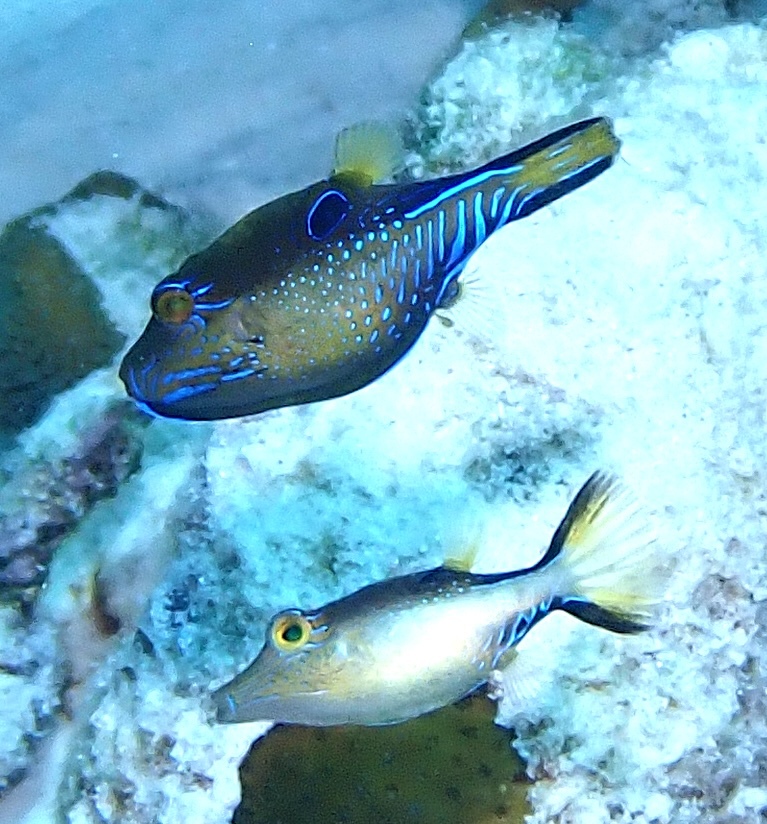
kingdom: Animalia
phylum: Chordata
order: Tetraodontiformes
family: Tetraodontidae
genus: Canthigaster
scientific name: Canthigaster rostrata
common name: Caribbean sharpnose-puffer
